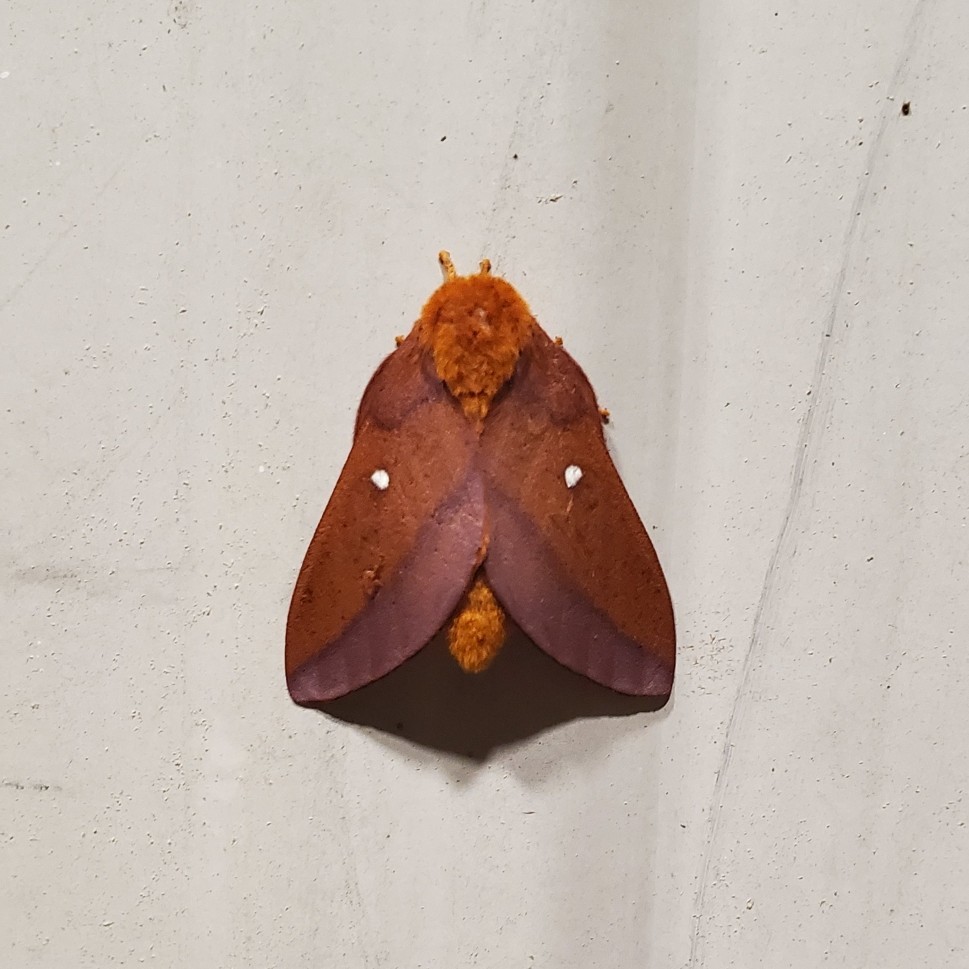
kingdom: Animalia
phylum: Arthropoda
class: Insecta
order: Lepidoptera
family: Saturniidae
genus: Anisota
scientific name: Anisota virginiensis
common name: Pink striped oakworm moth
